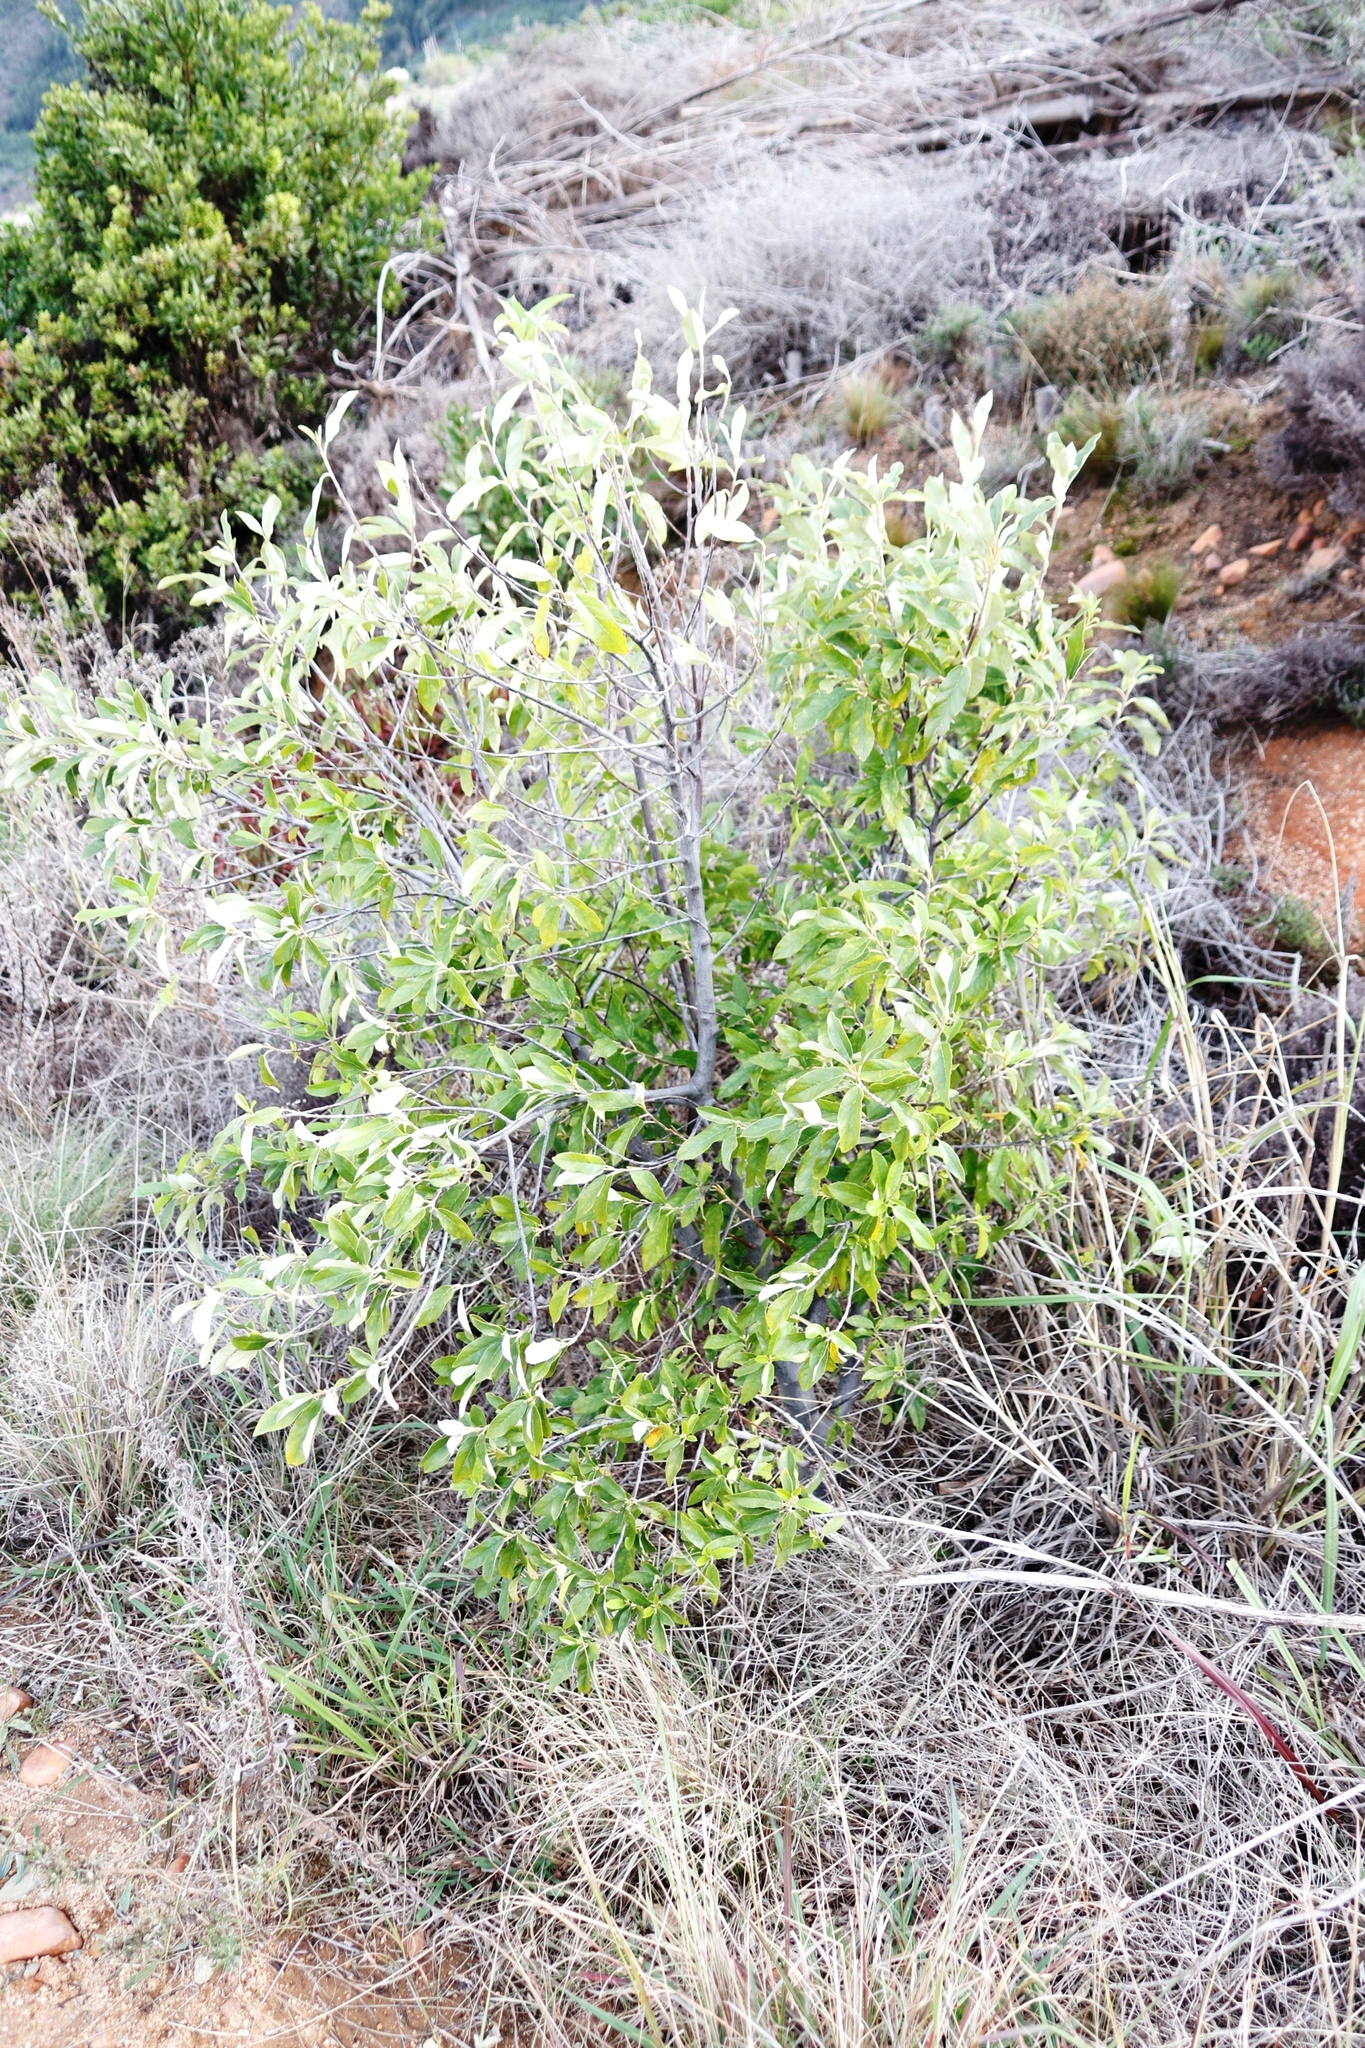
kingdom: Plantae
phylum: Tracheophyta
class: Magnoliopsida
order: Malpighiales
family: Achariaceae
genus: Kiggelaria
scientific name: Kiggelaria africana
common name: Wild peach
